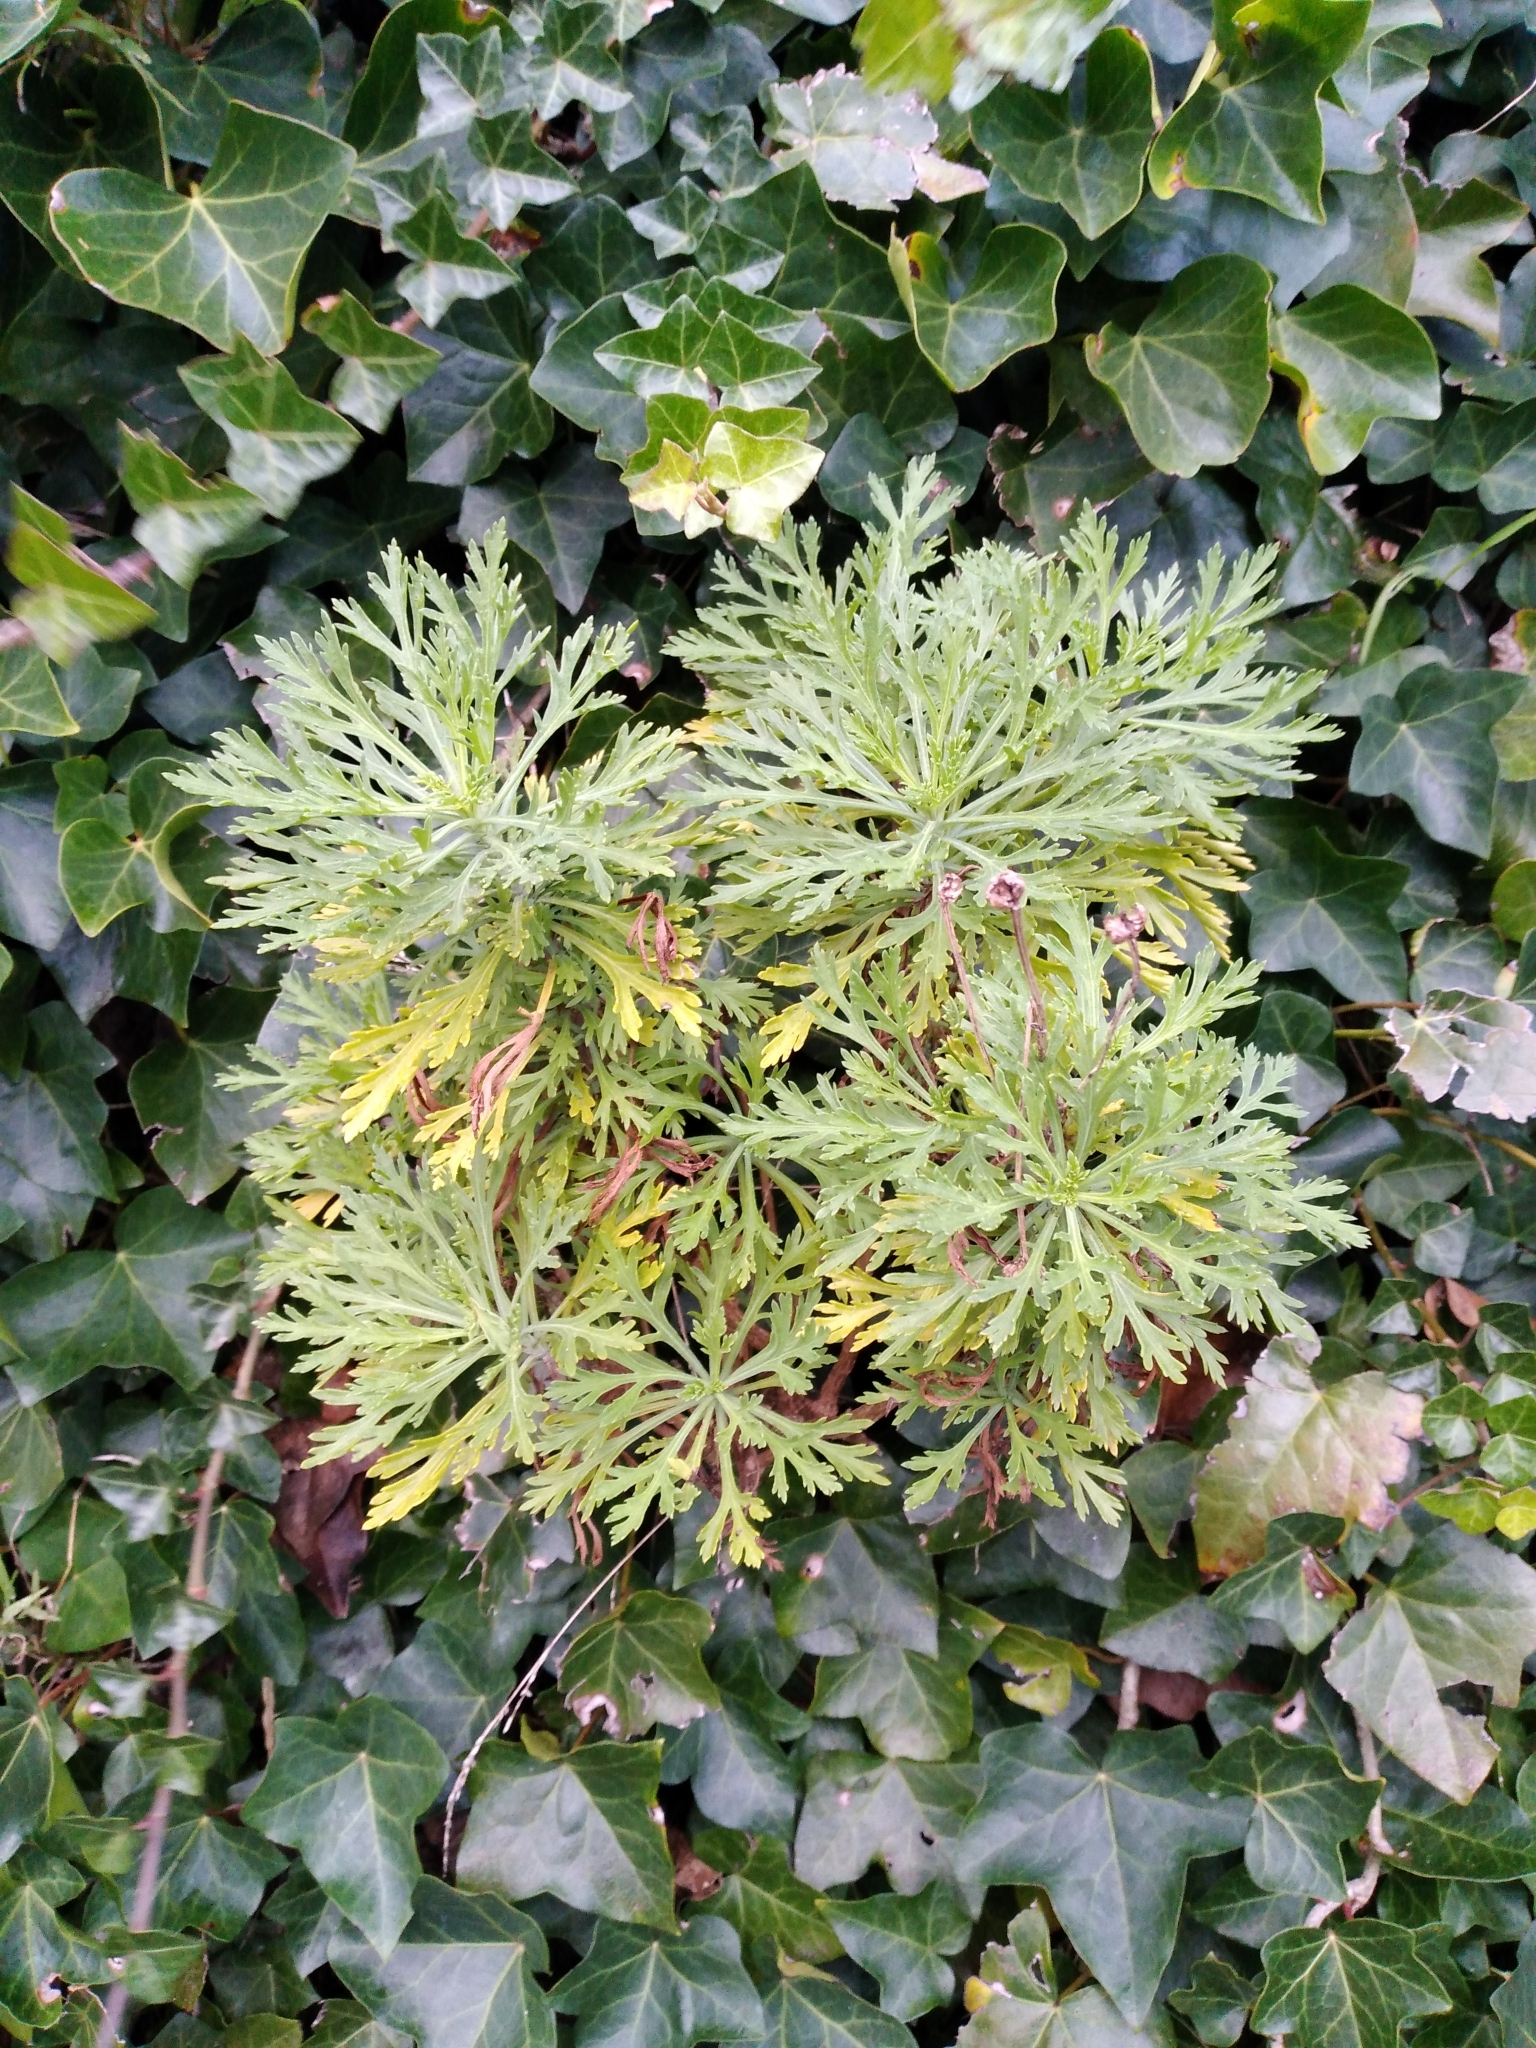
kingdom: Plantae
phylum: Tracheophyta
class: Magnoliopsida
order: Asterales
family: Asteraceae
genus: Argyranthemum
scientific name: Argyranthemum frutescens
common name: Paris daisy
